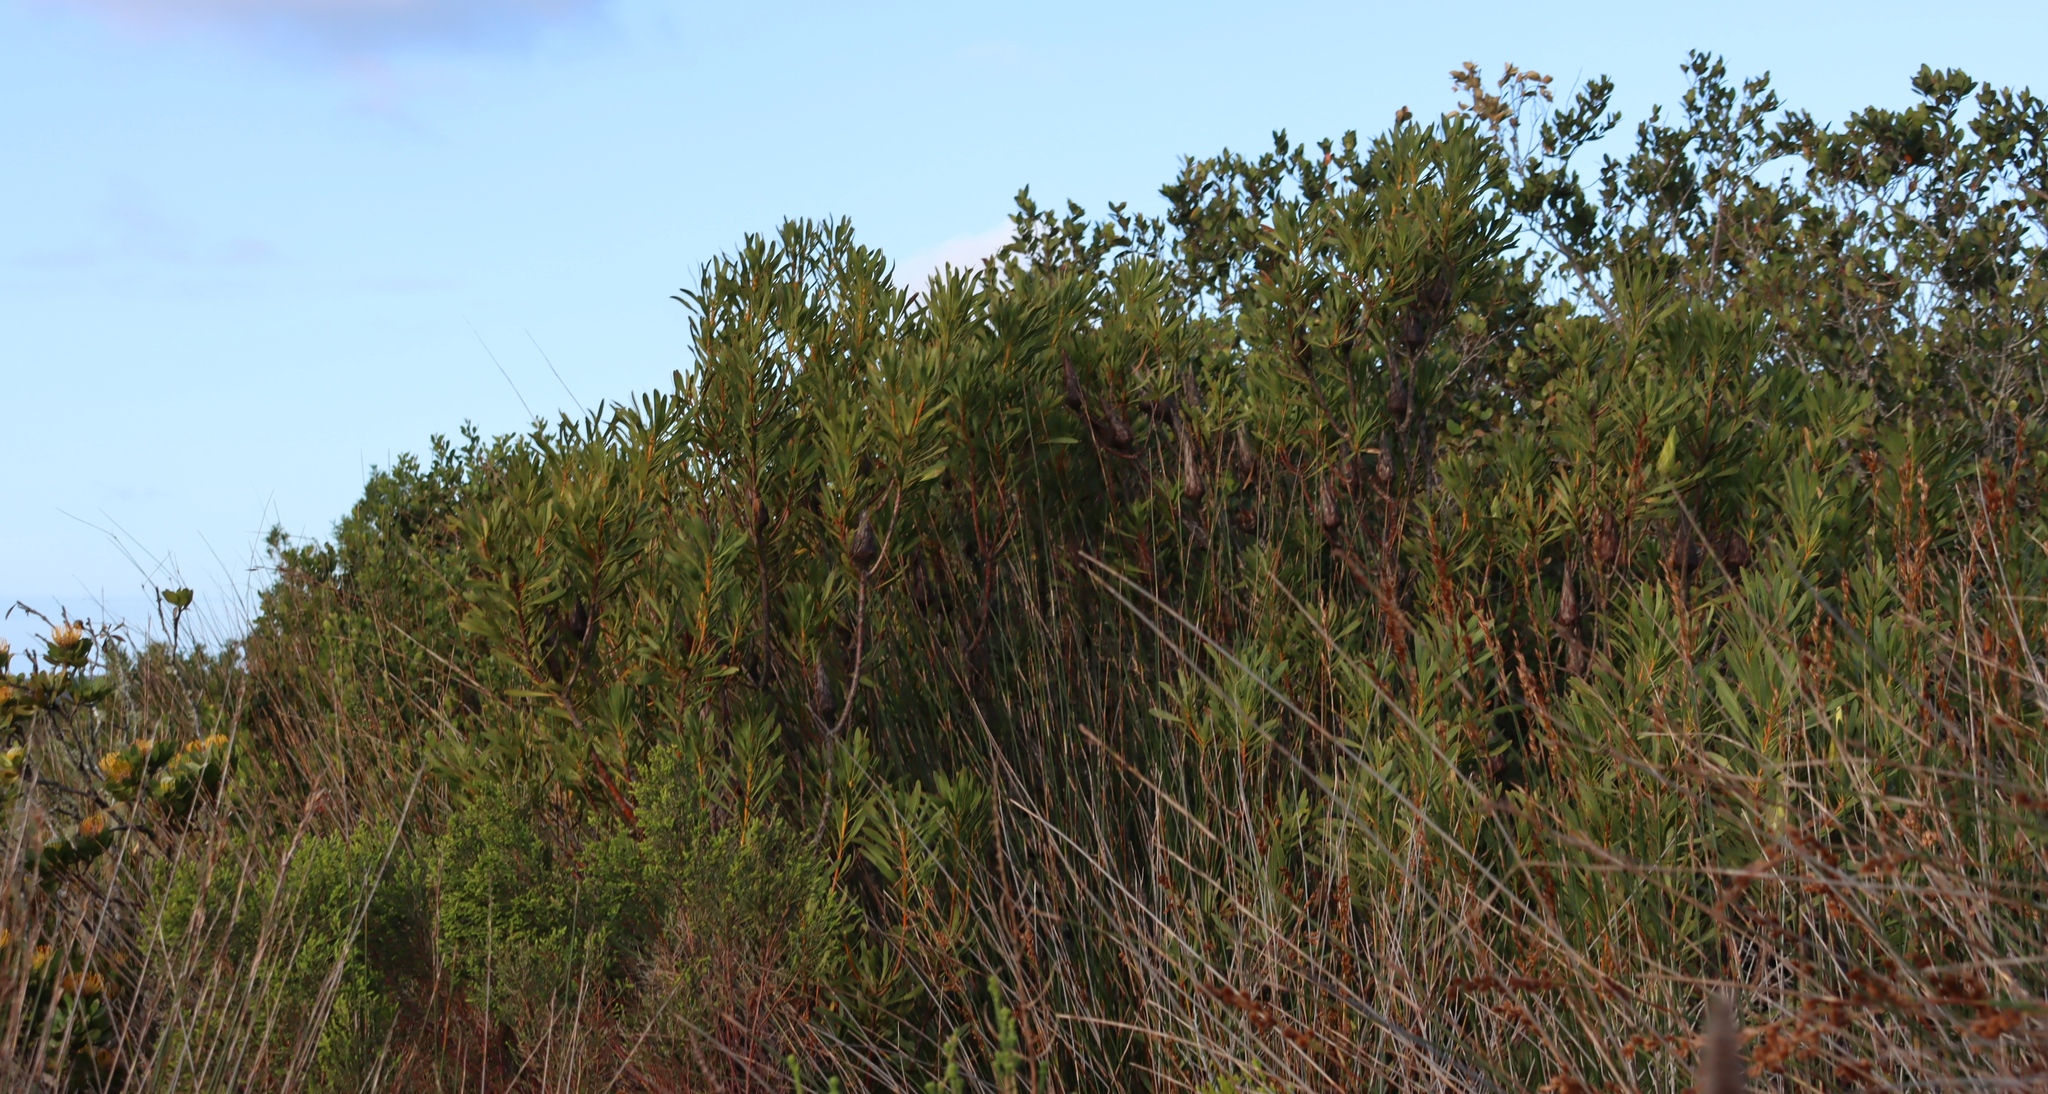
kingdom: Plantae
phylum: Tracheophyta
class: Magnoliopsida
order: Proteales
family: Proteaceae
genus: Protea
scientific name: Protea repens
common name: Sugarbush
